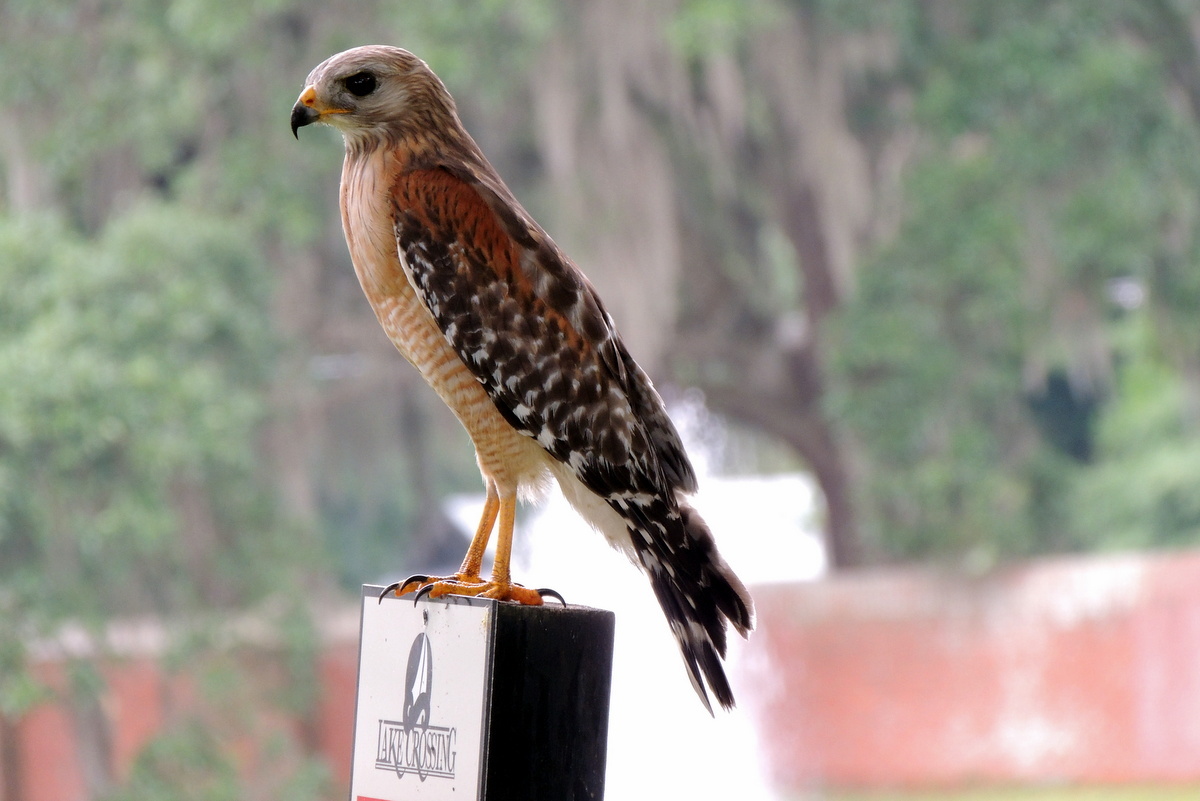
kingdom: Animalia
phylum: Chordata
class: Aves
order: Accipitriformes
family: Accipitridae
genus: Buteo
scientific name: Buteo lineatus
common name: Red-shouldered hawk
